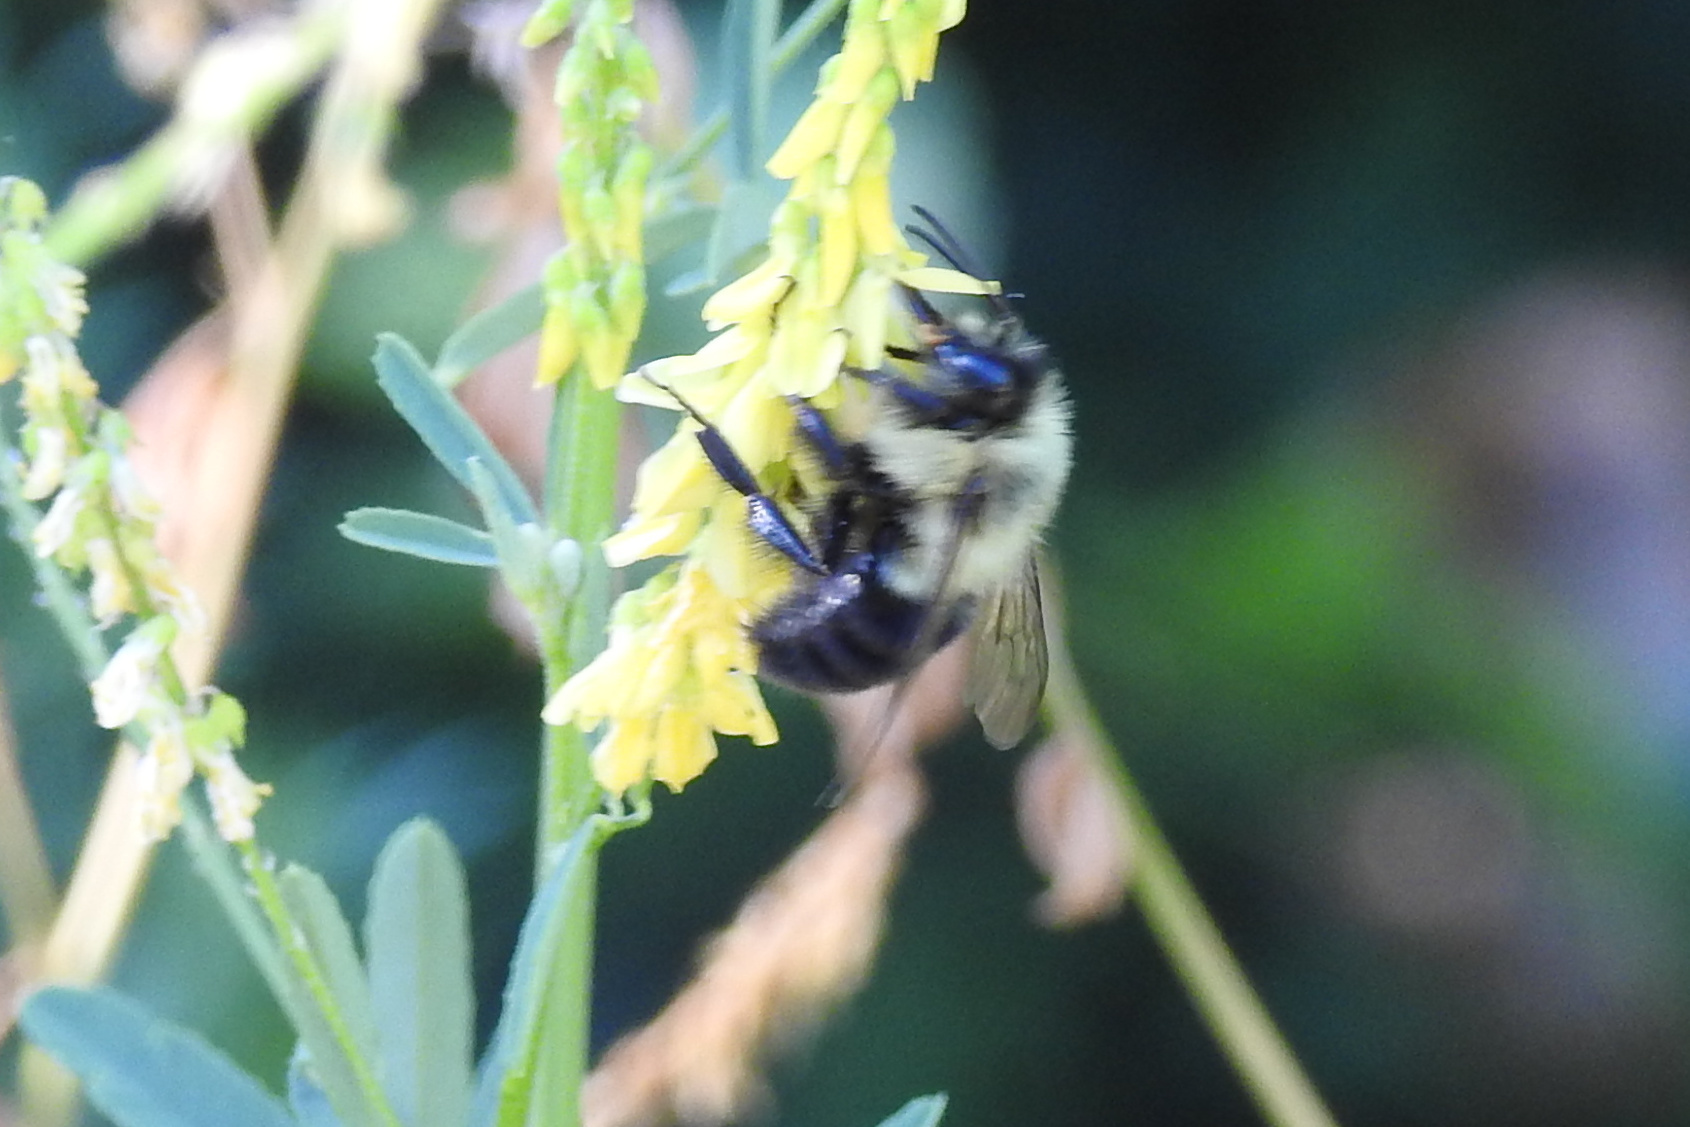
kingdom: Animalia
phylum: Arthropoda
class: Insecta
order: Hymenoptera
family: Apidae
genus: Bombus
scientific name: Bombus impatiens
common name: Common eastern bumble bee
